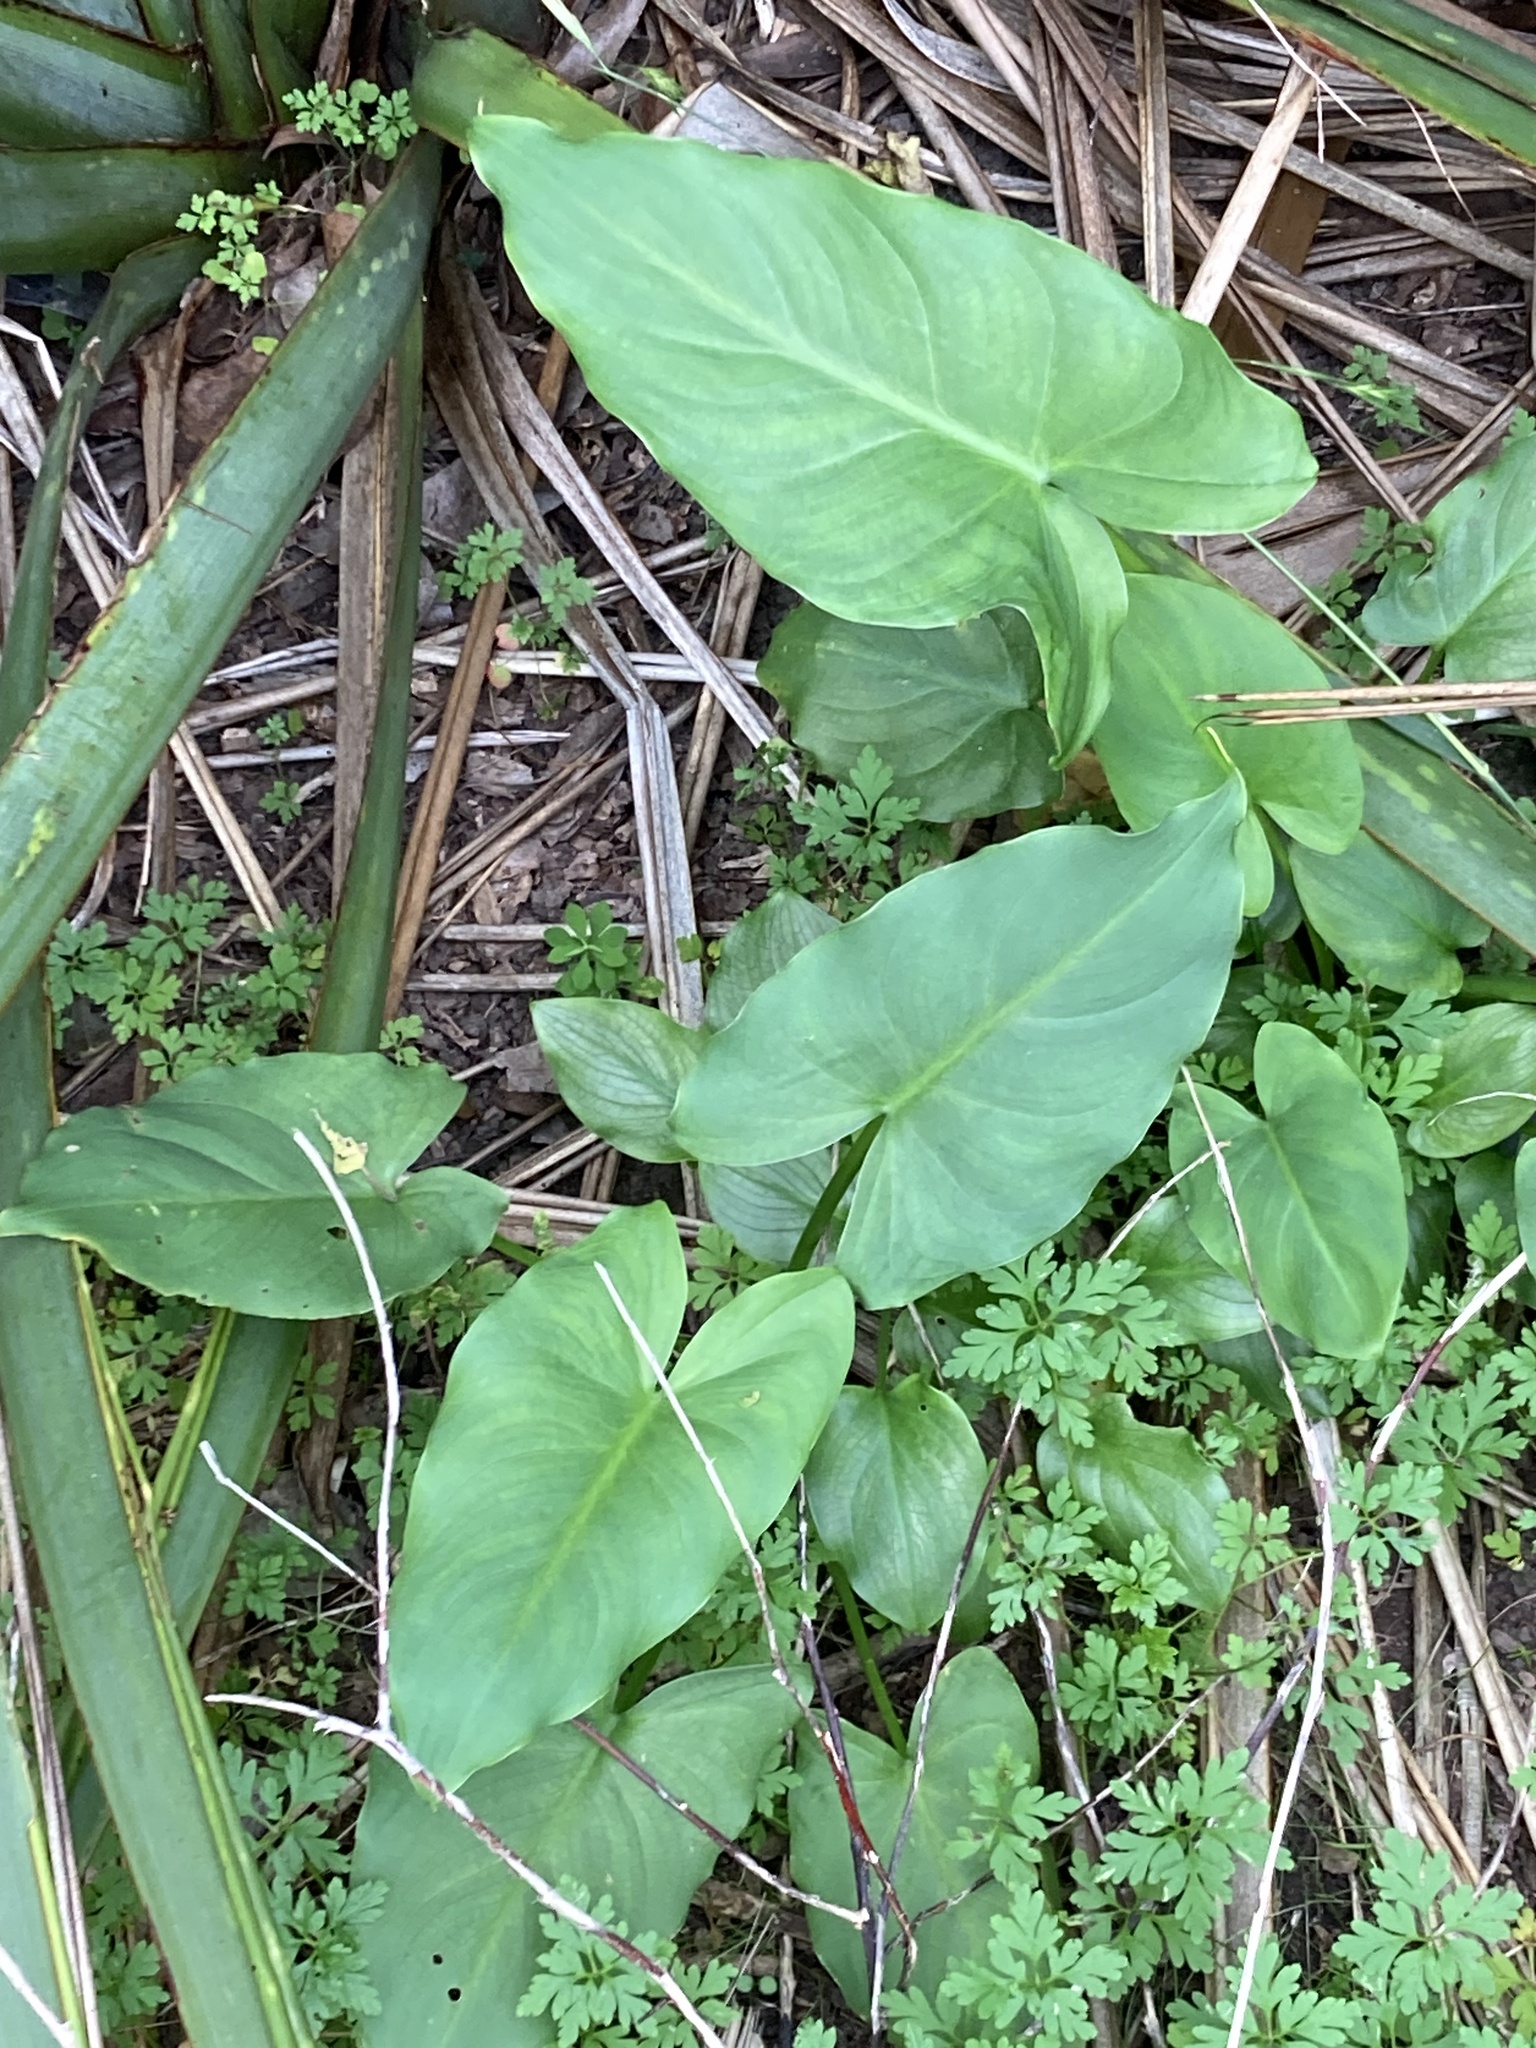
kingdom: Plantae
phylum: Tracheophyta
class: Liliopsida
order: Alismatales
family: Araceae
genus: Zantedeschia
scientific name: Zantedeschia aethiopica
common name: Altar-lily
